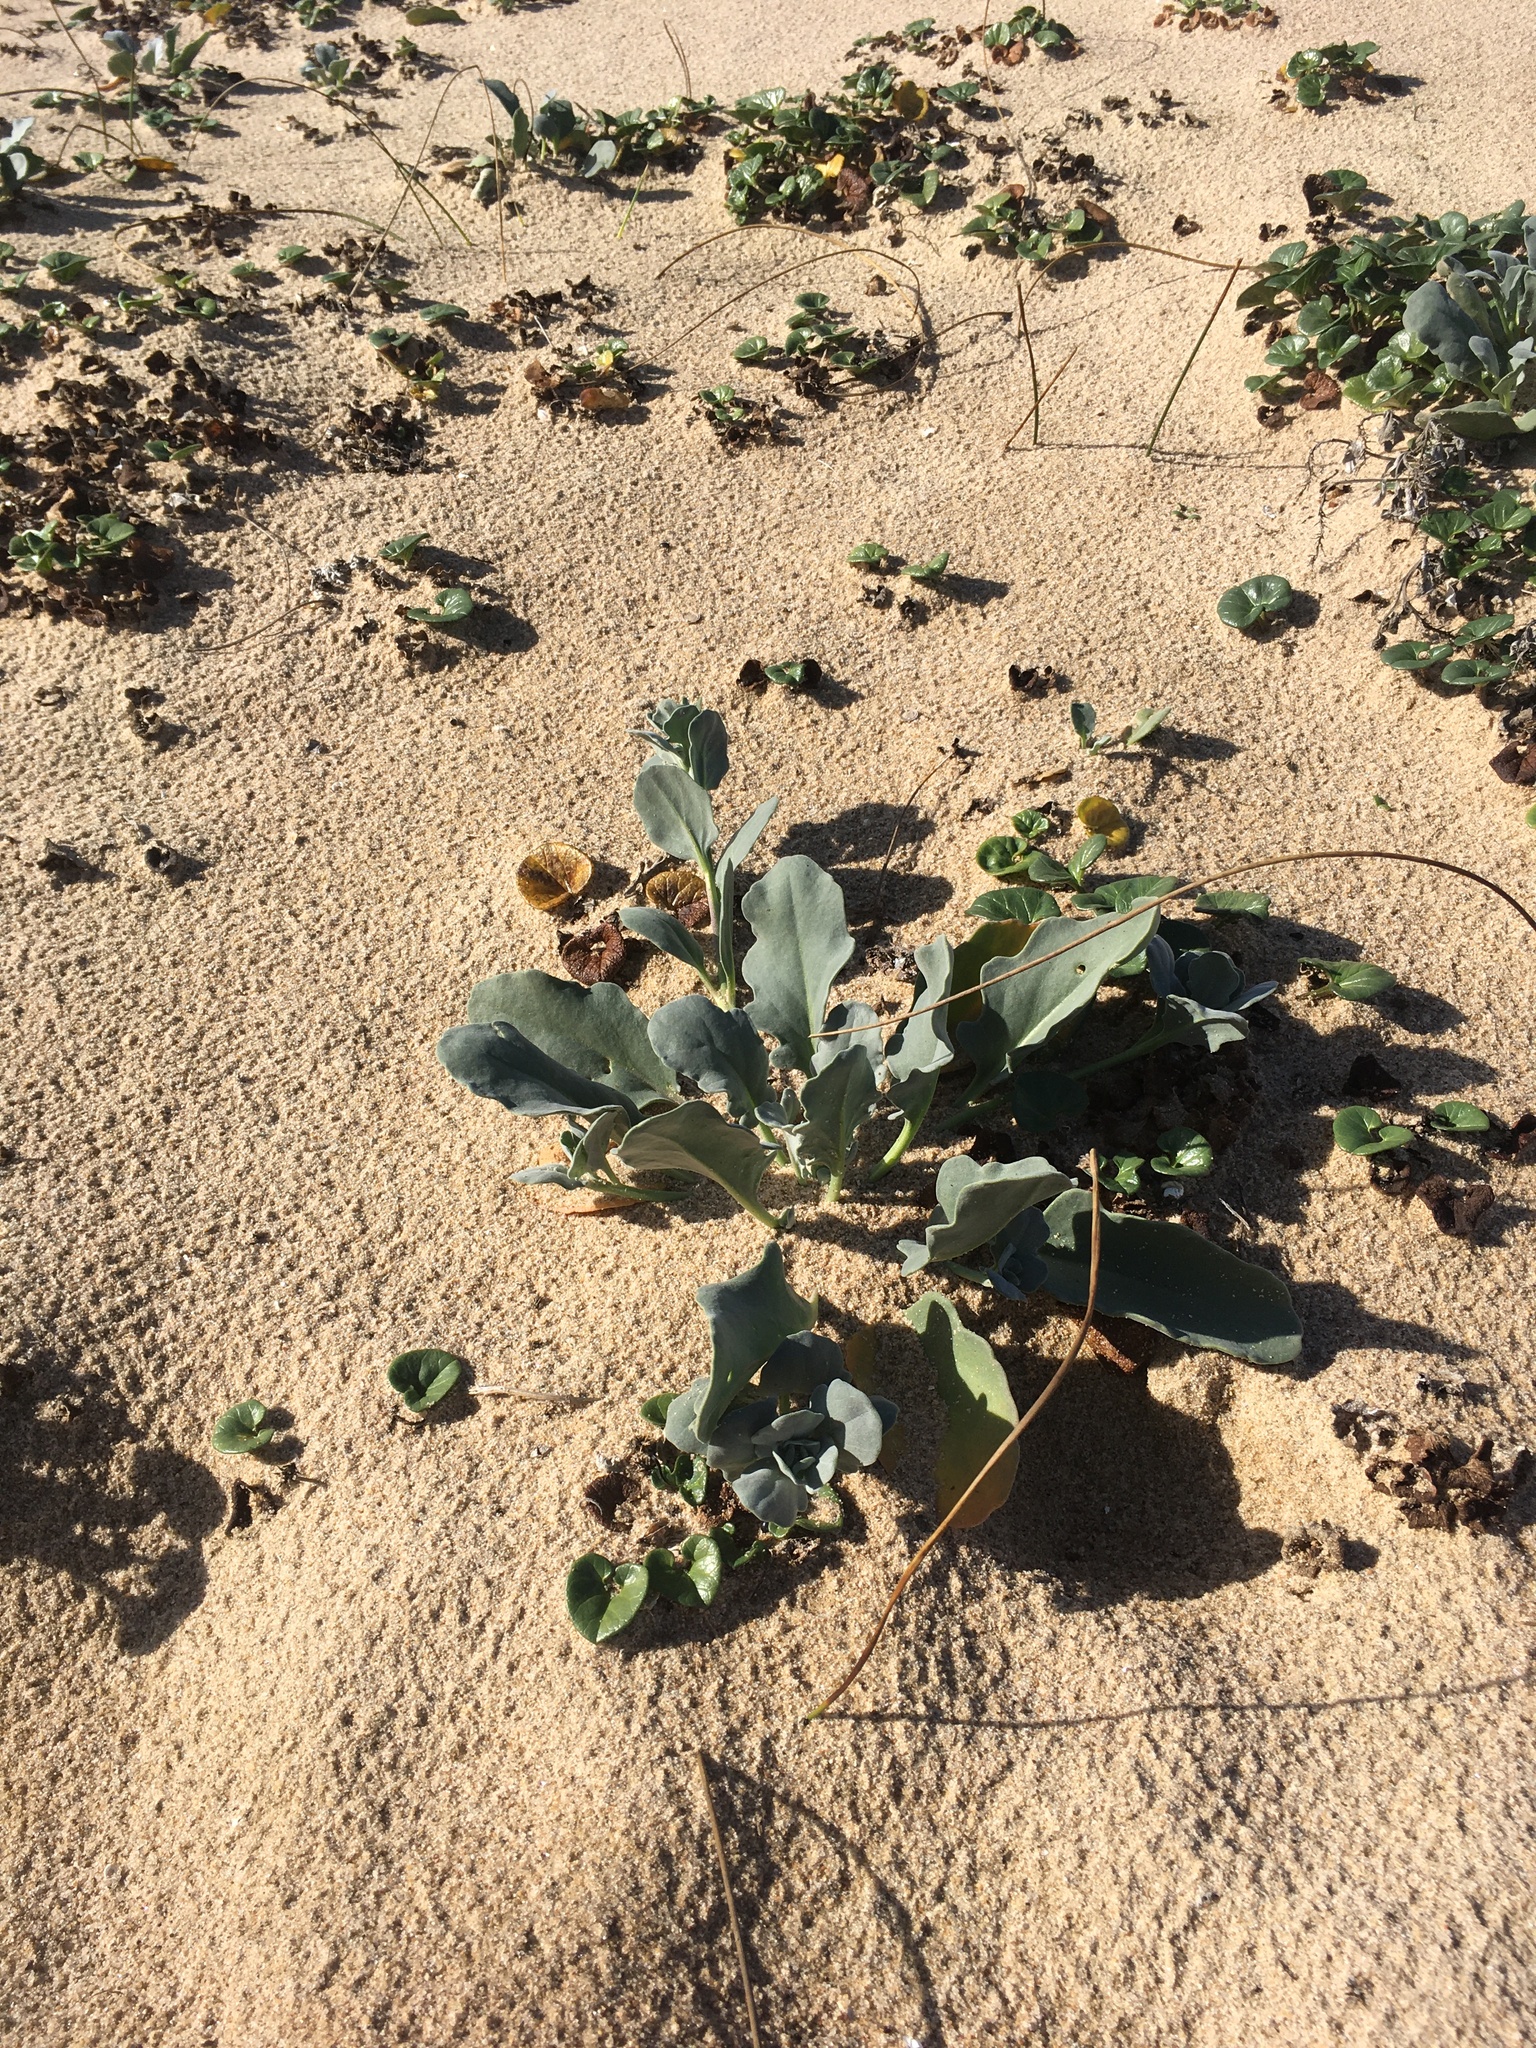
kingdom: Plantae
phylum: Tracheophyta
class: Magnoliopsida
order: Brassicales
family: Brassicaceae
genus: Dithyrea
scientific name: Dithyrea maritima
